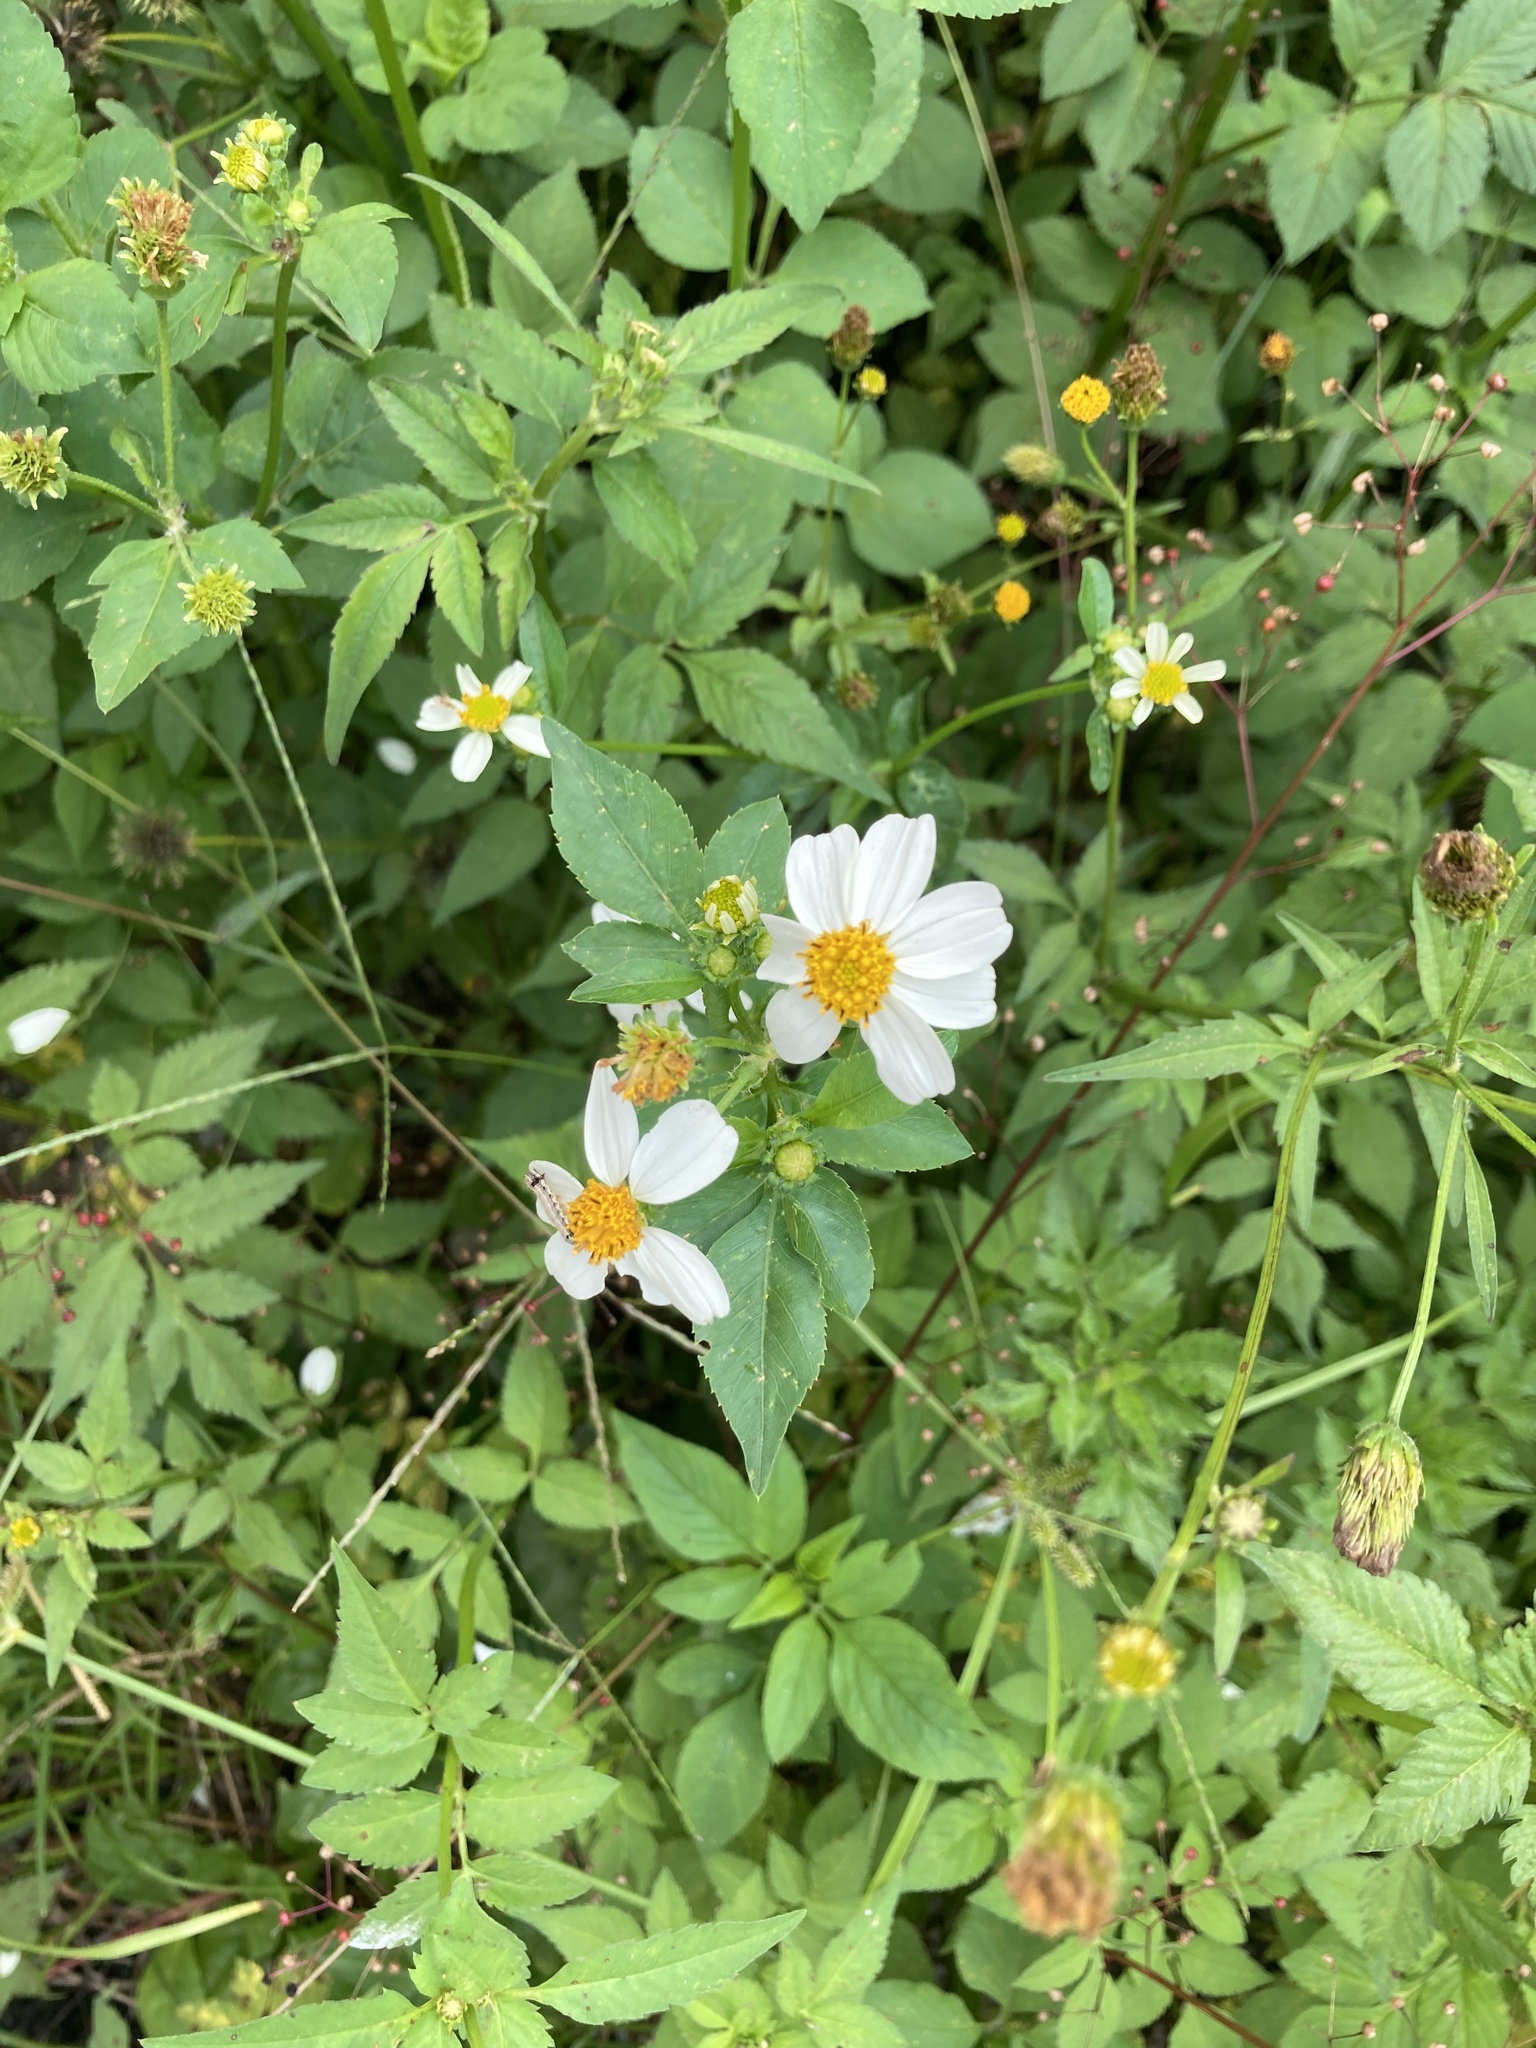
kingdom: Plantae
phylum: Tracheophyta
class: Magnoliopsida
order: Asterales
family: Asteraceae
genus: Bidens
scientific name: Bidens alba
